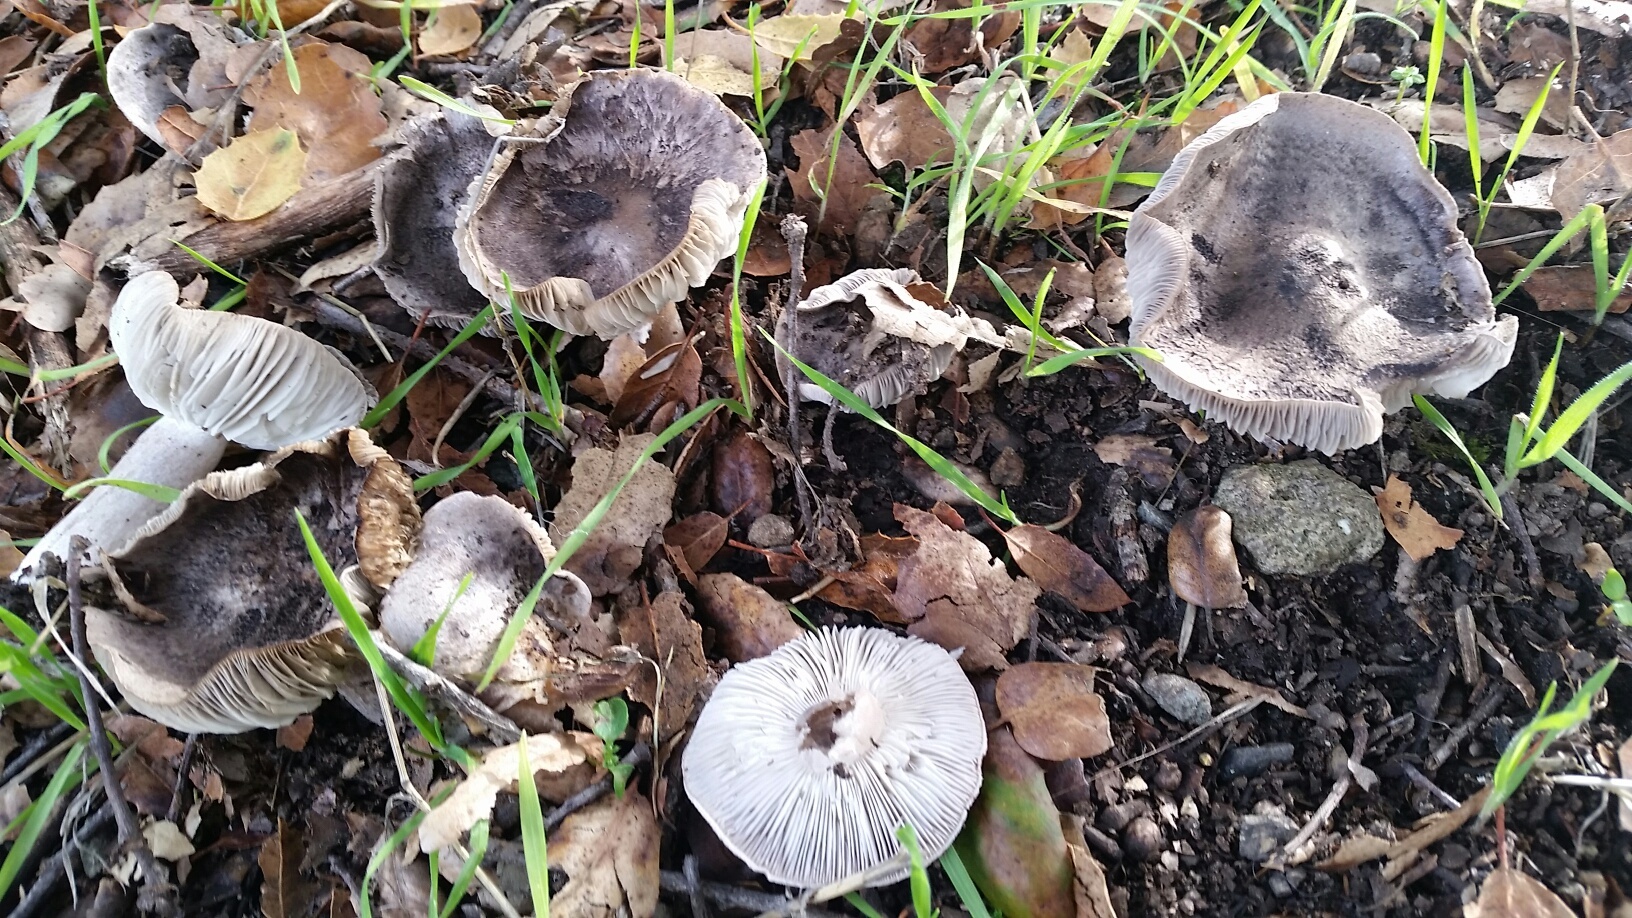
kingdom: Fungi
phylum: Basidiomycota
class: Agaricomycetes
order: Agaricales
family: Tricholomataceae
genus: Tricholoma
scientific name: Tricholoma terreum
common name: Grey knight
